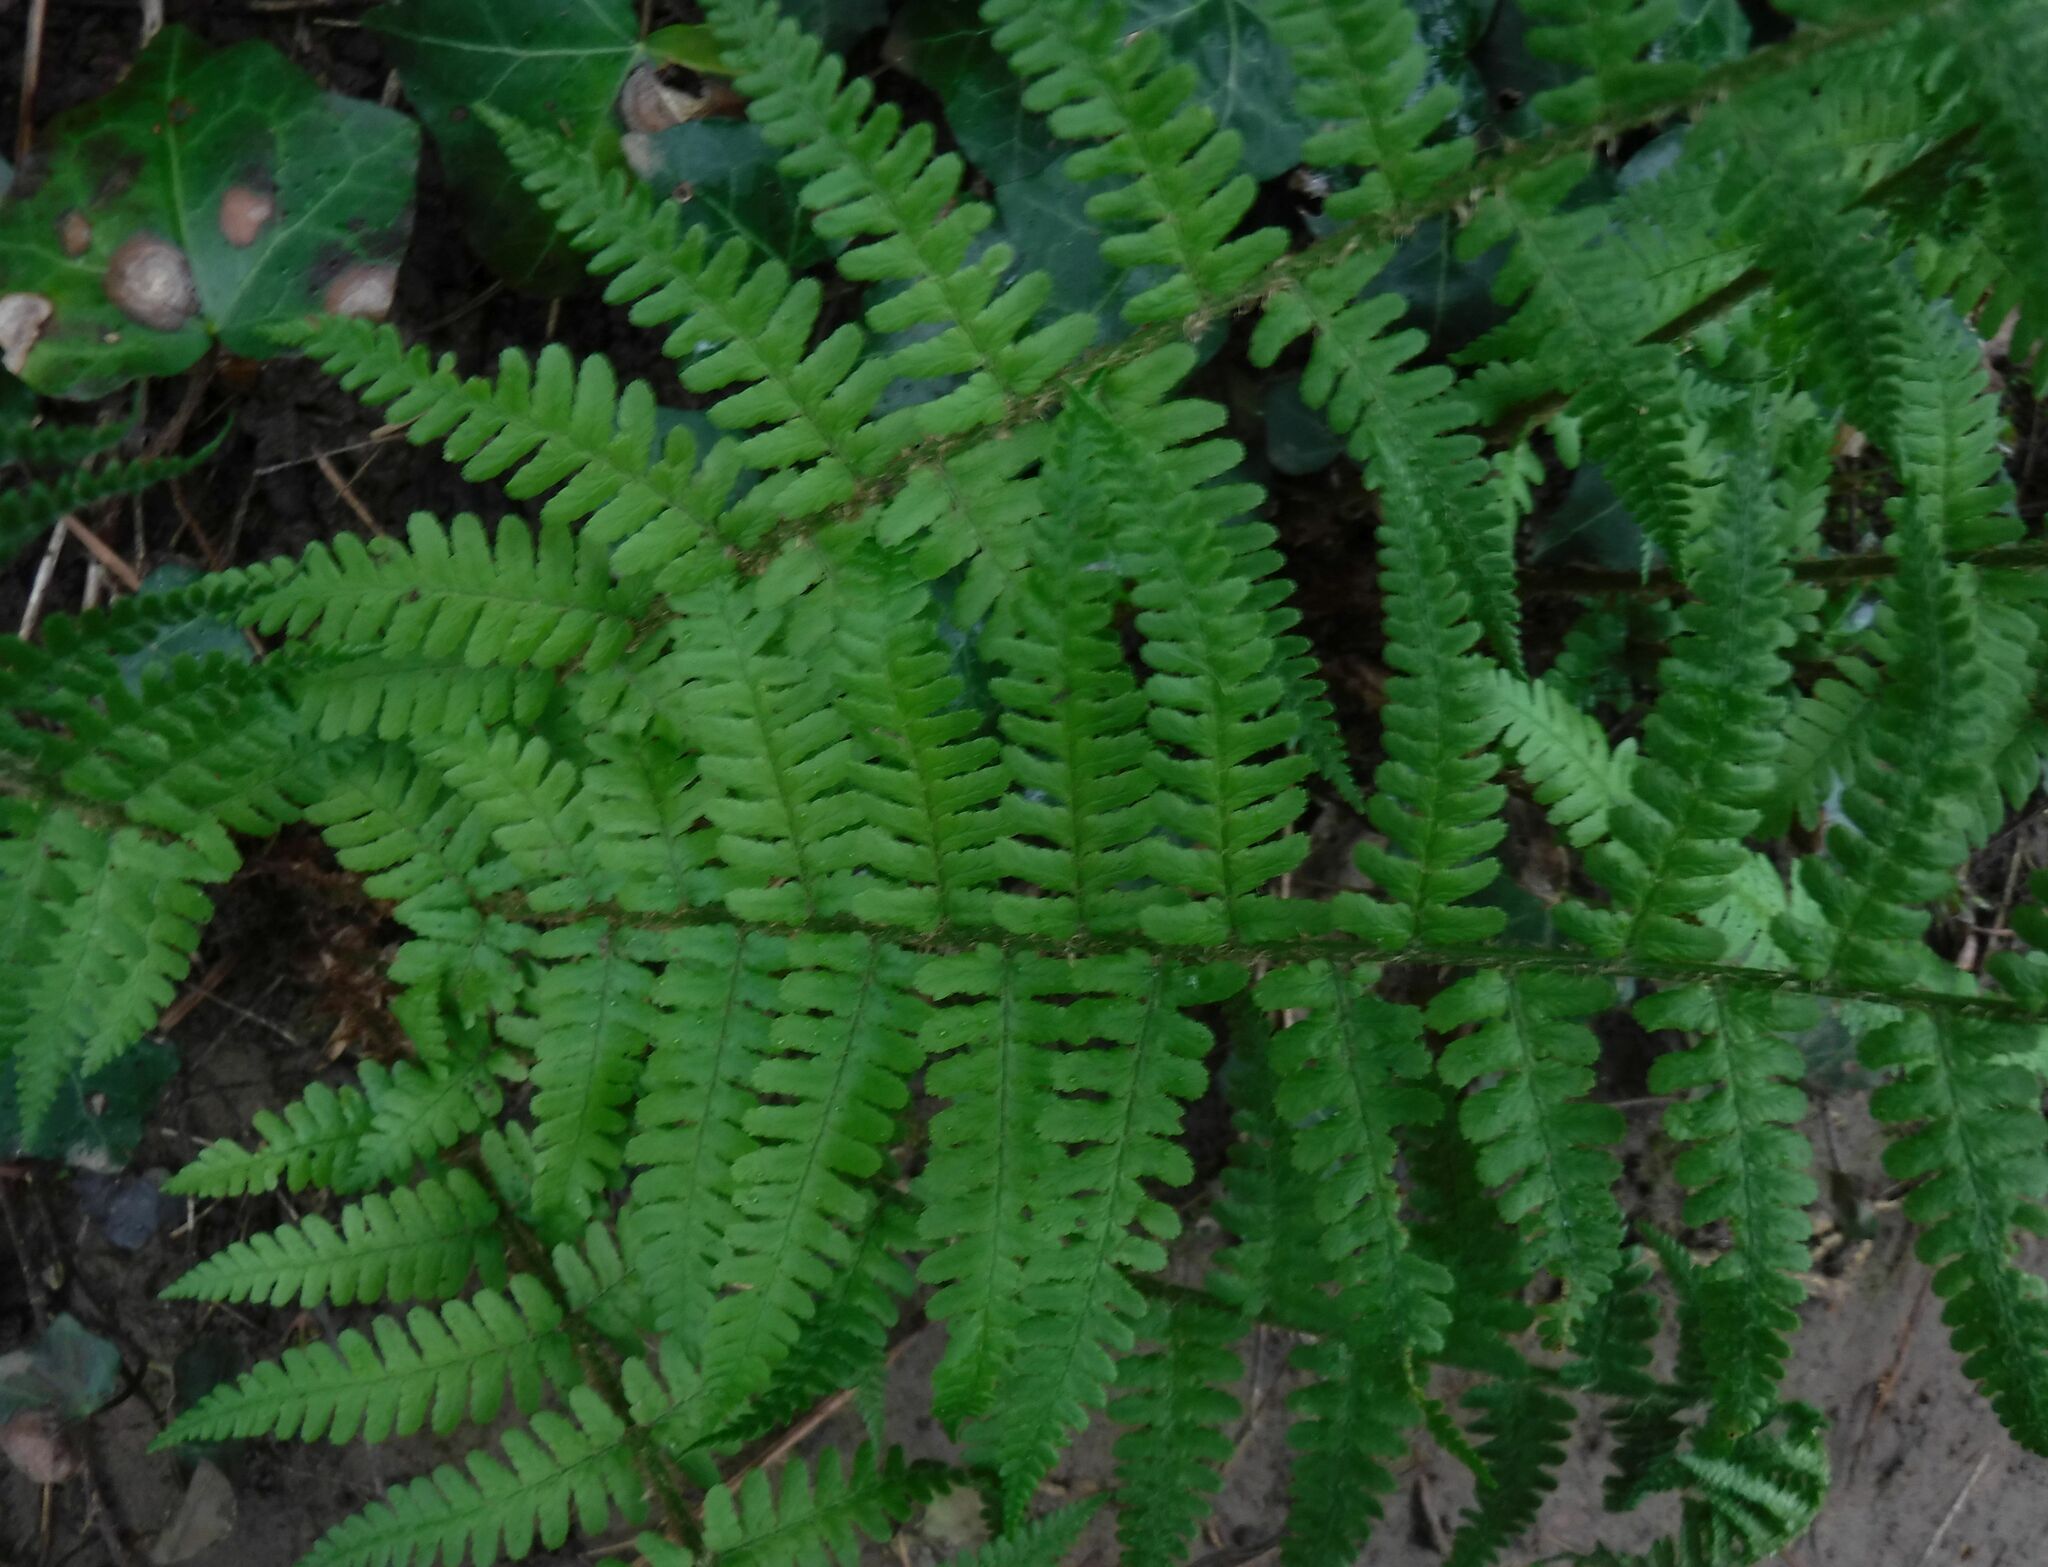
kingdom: Plantae
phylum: Tracheophyta
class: Polypodiopsida
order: Polypodiales
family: Dryopteridaceae
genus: Dryopteris
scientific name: Dryopteris filix-mas
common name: Male fern
